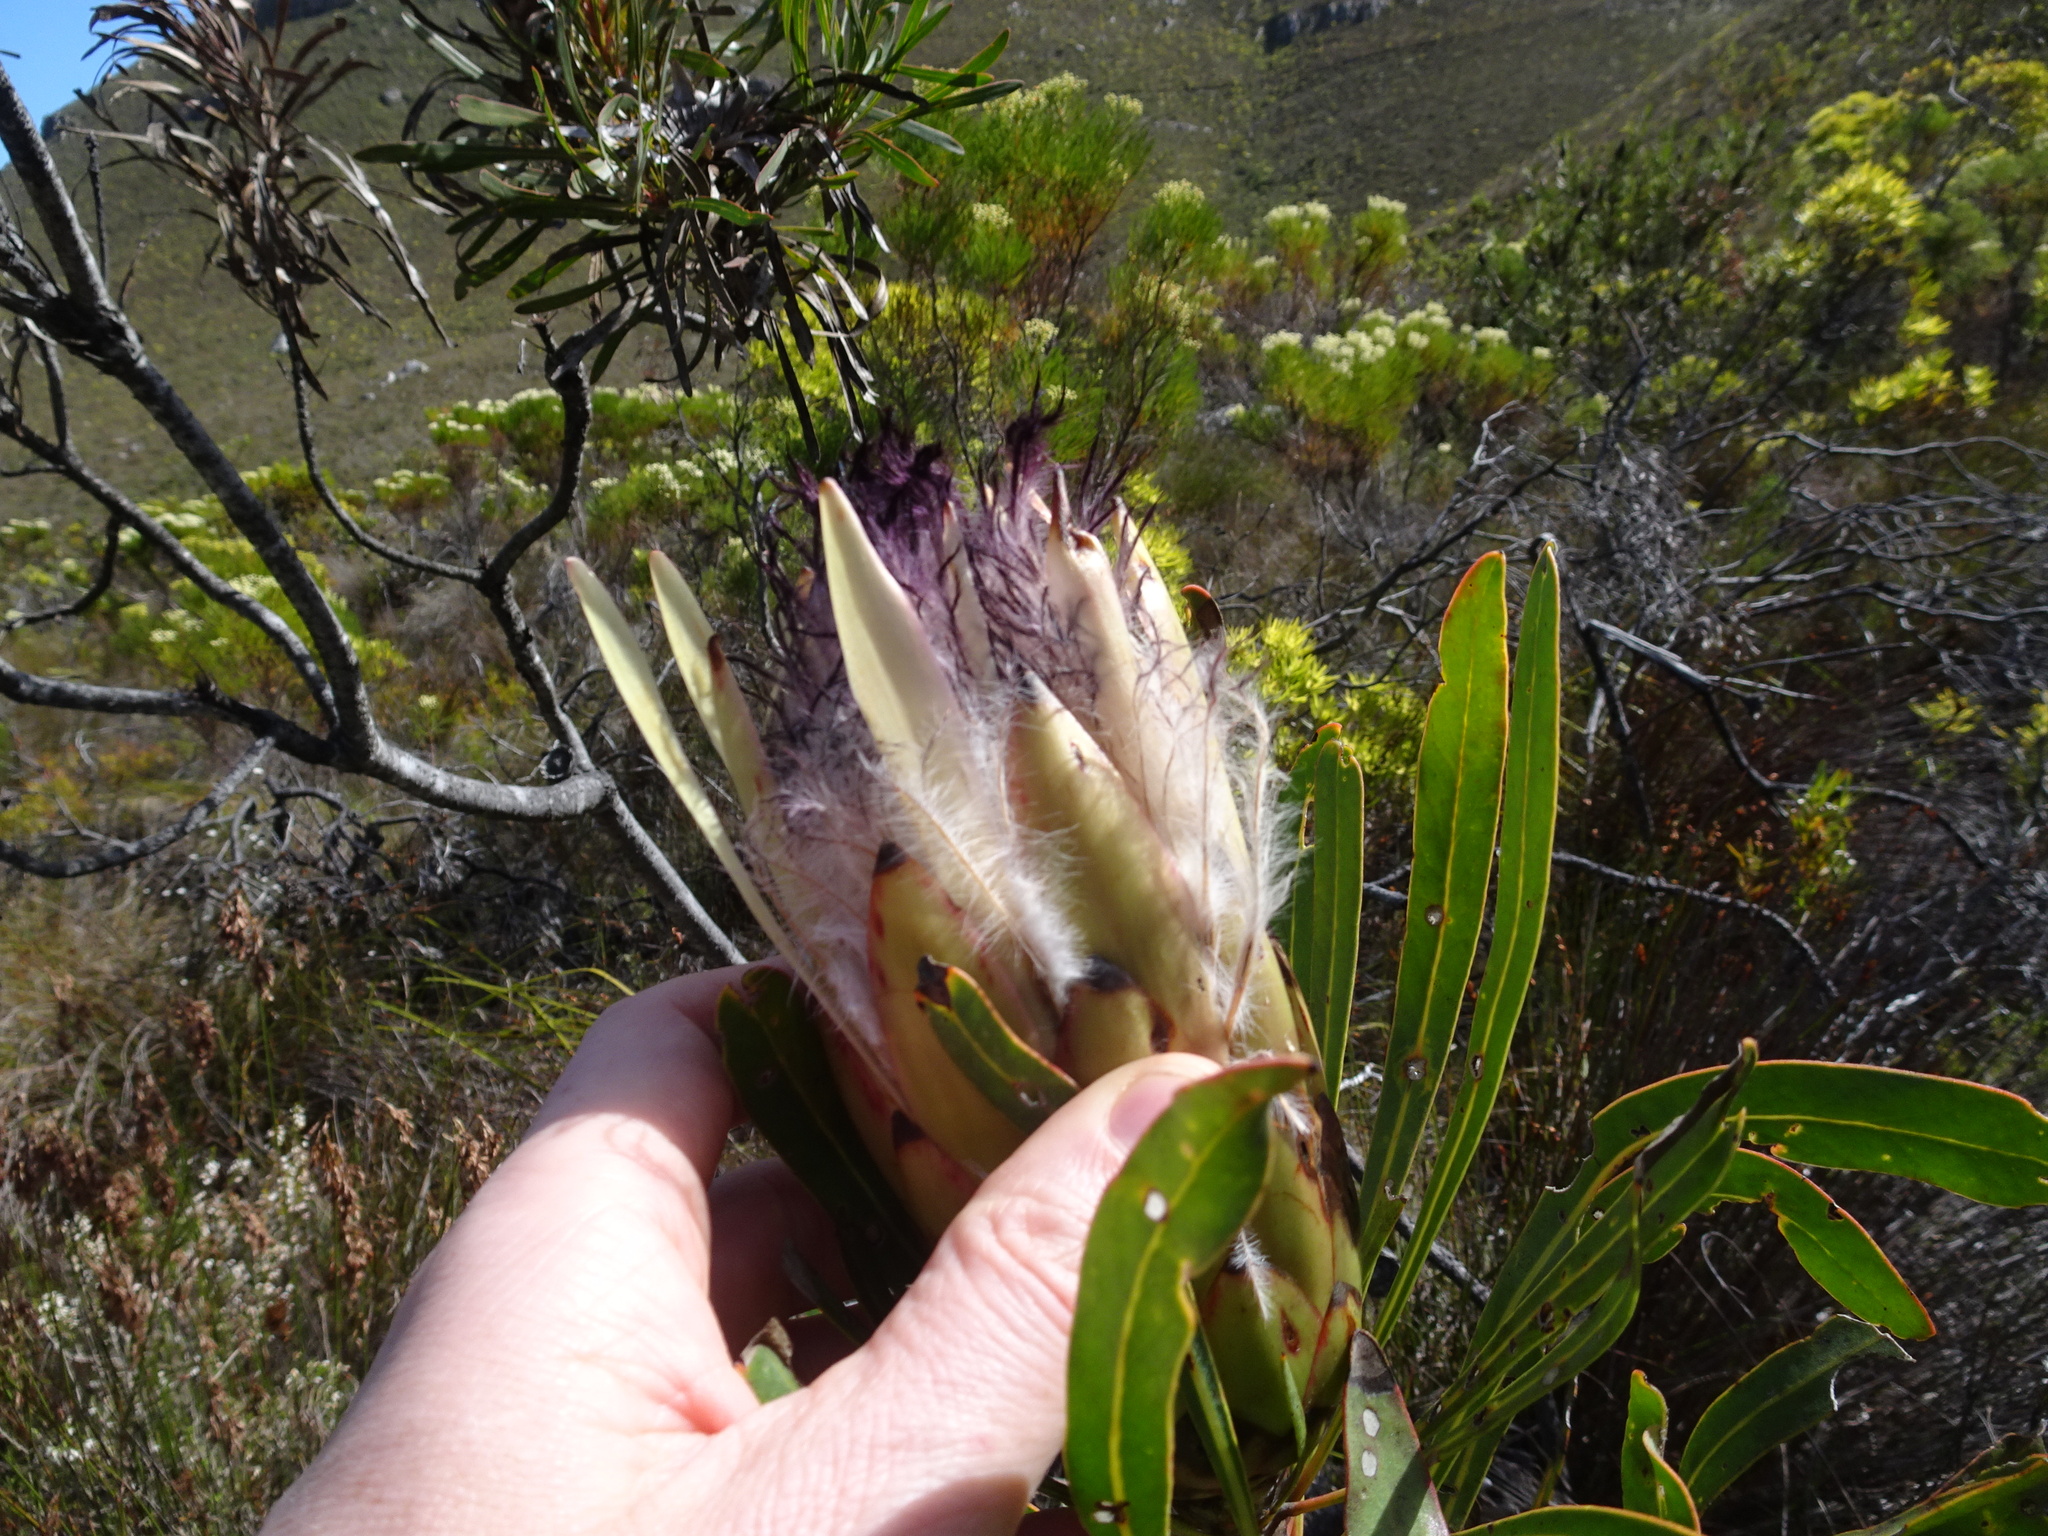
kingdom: Plantae
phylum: Tracheophyta
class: Magnoliopsida
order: Proteales
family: Proteaceae
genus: Protea
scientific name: Protea longifolia
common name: Long-leaf sugarbush
